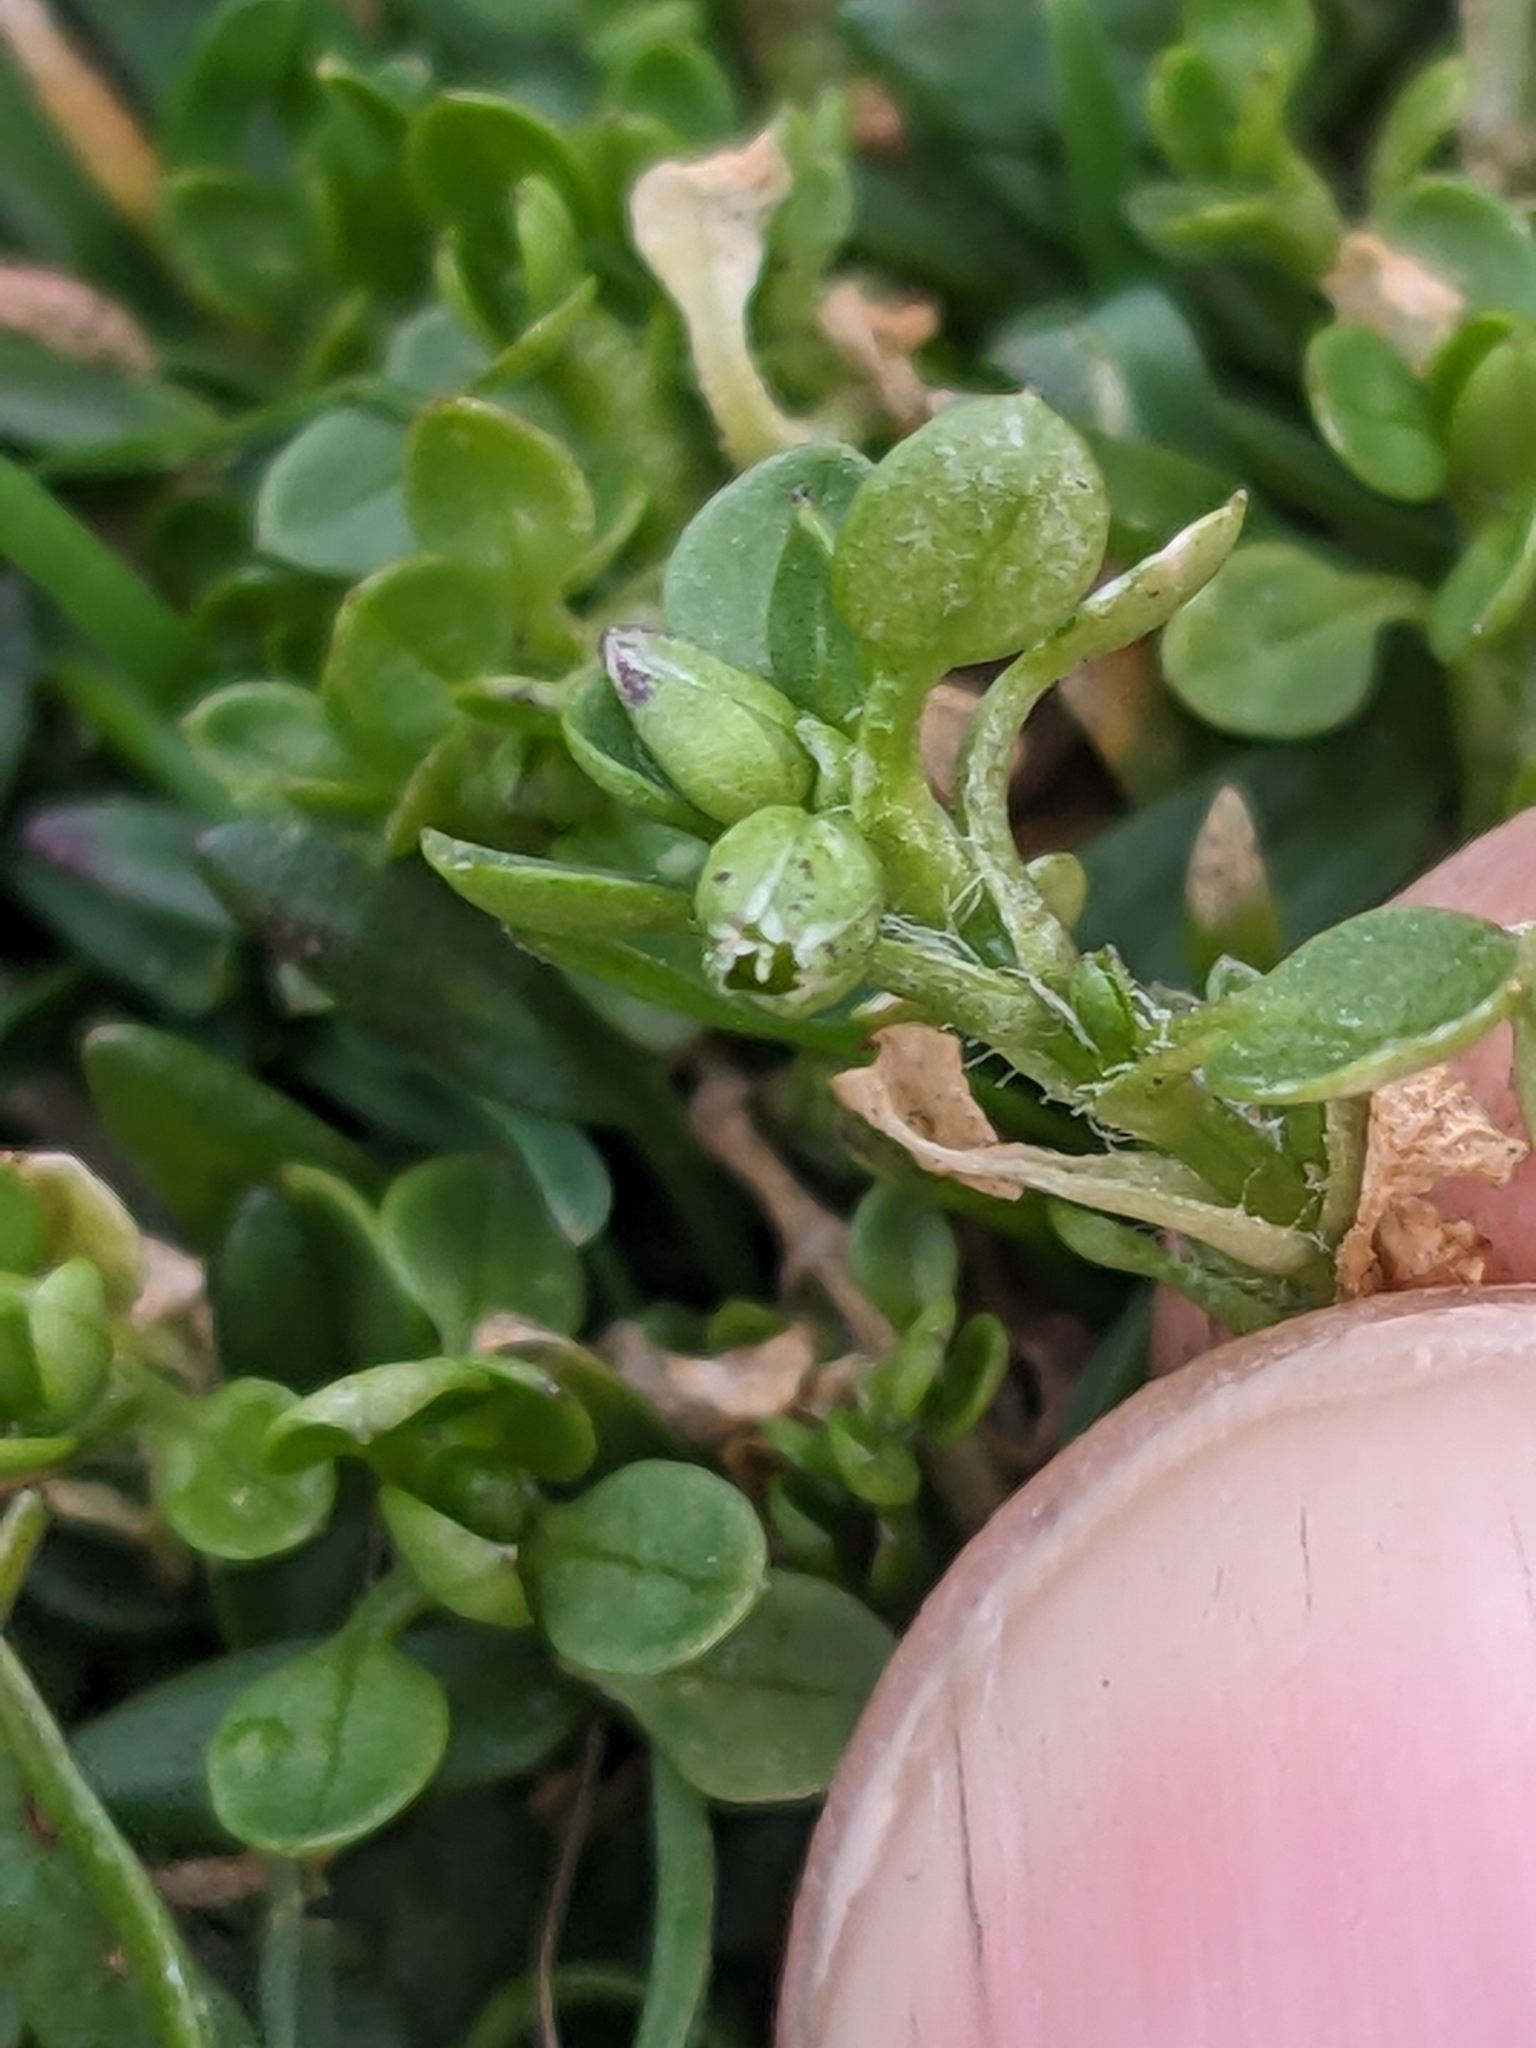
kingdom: Plantae
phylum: Tracheophyta
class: Magnoliopsida
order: Caryophyllales
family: Caryophyllaceae
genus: Stellaria
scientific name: Stellaria apetala
